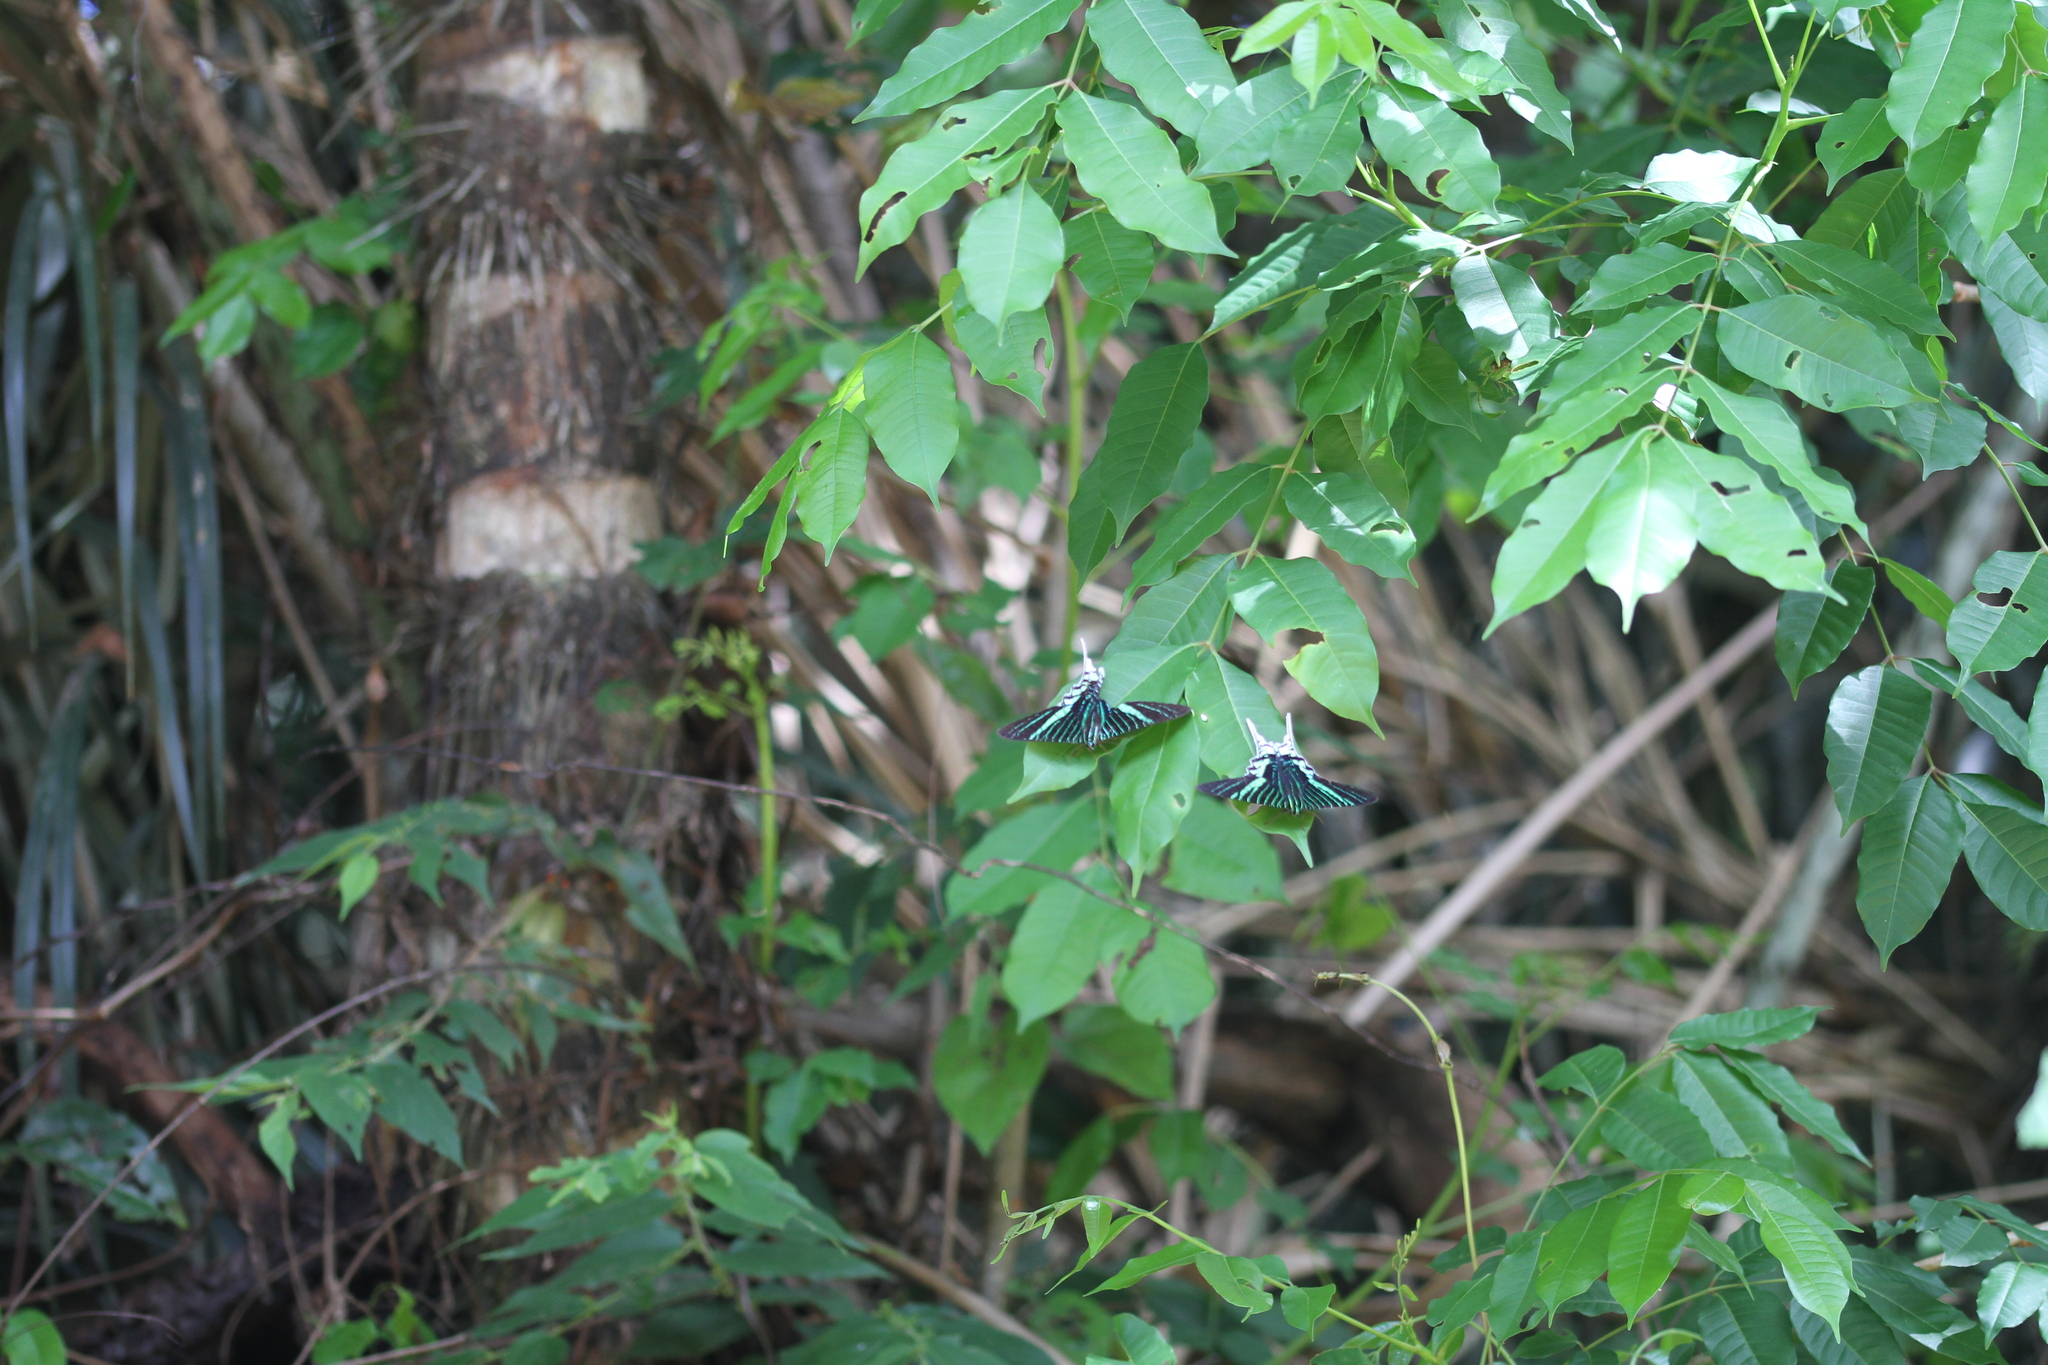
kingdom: Animalia
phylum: Arthropoda
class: Insecta
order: Lepidoptera
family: Uraniidae
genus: Urania
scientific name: Urania leilus
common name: Peacock moth
